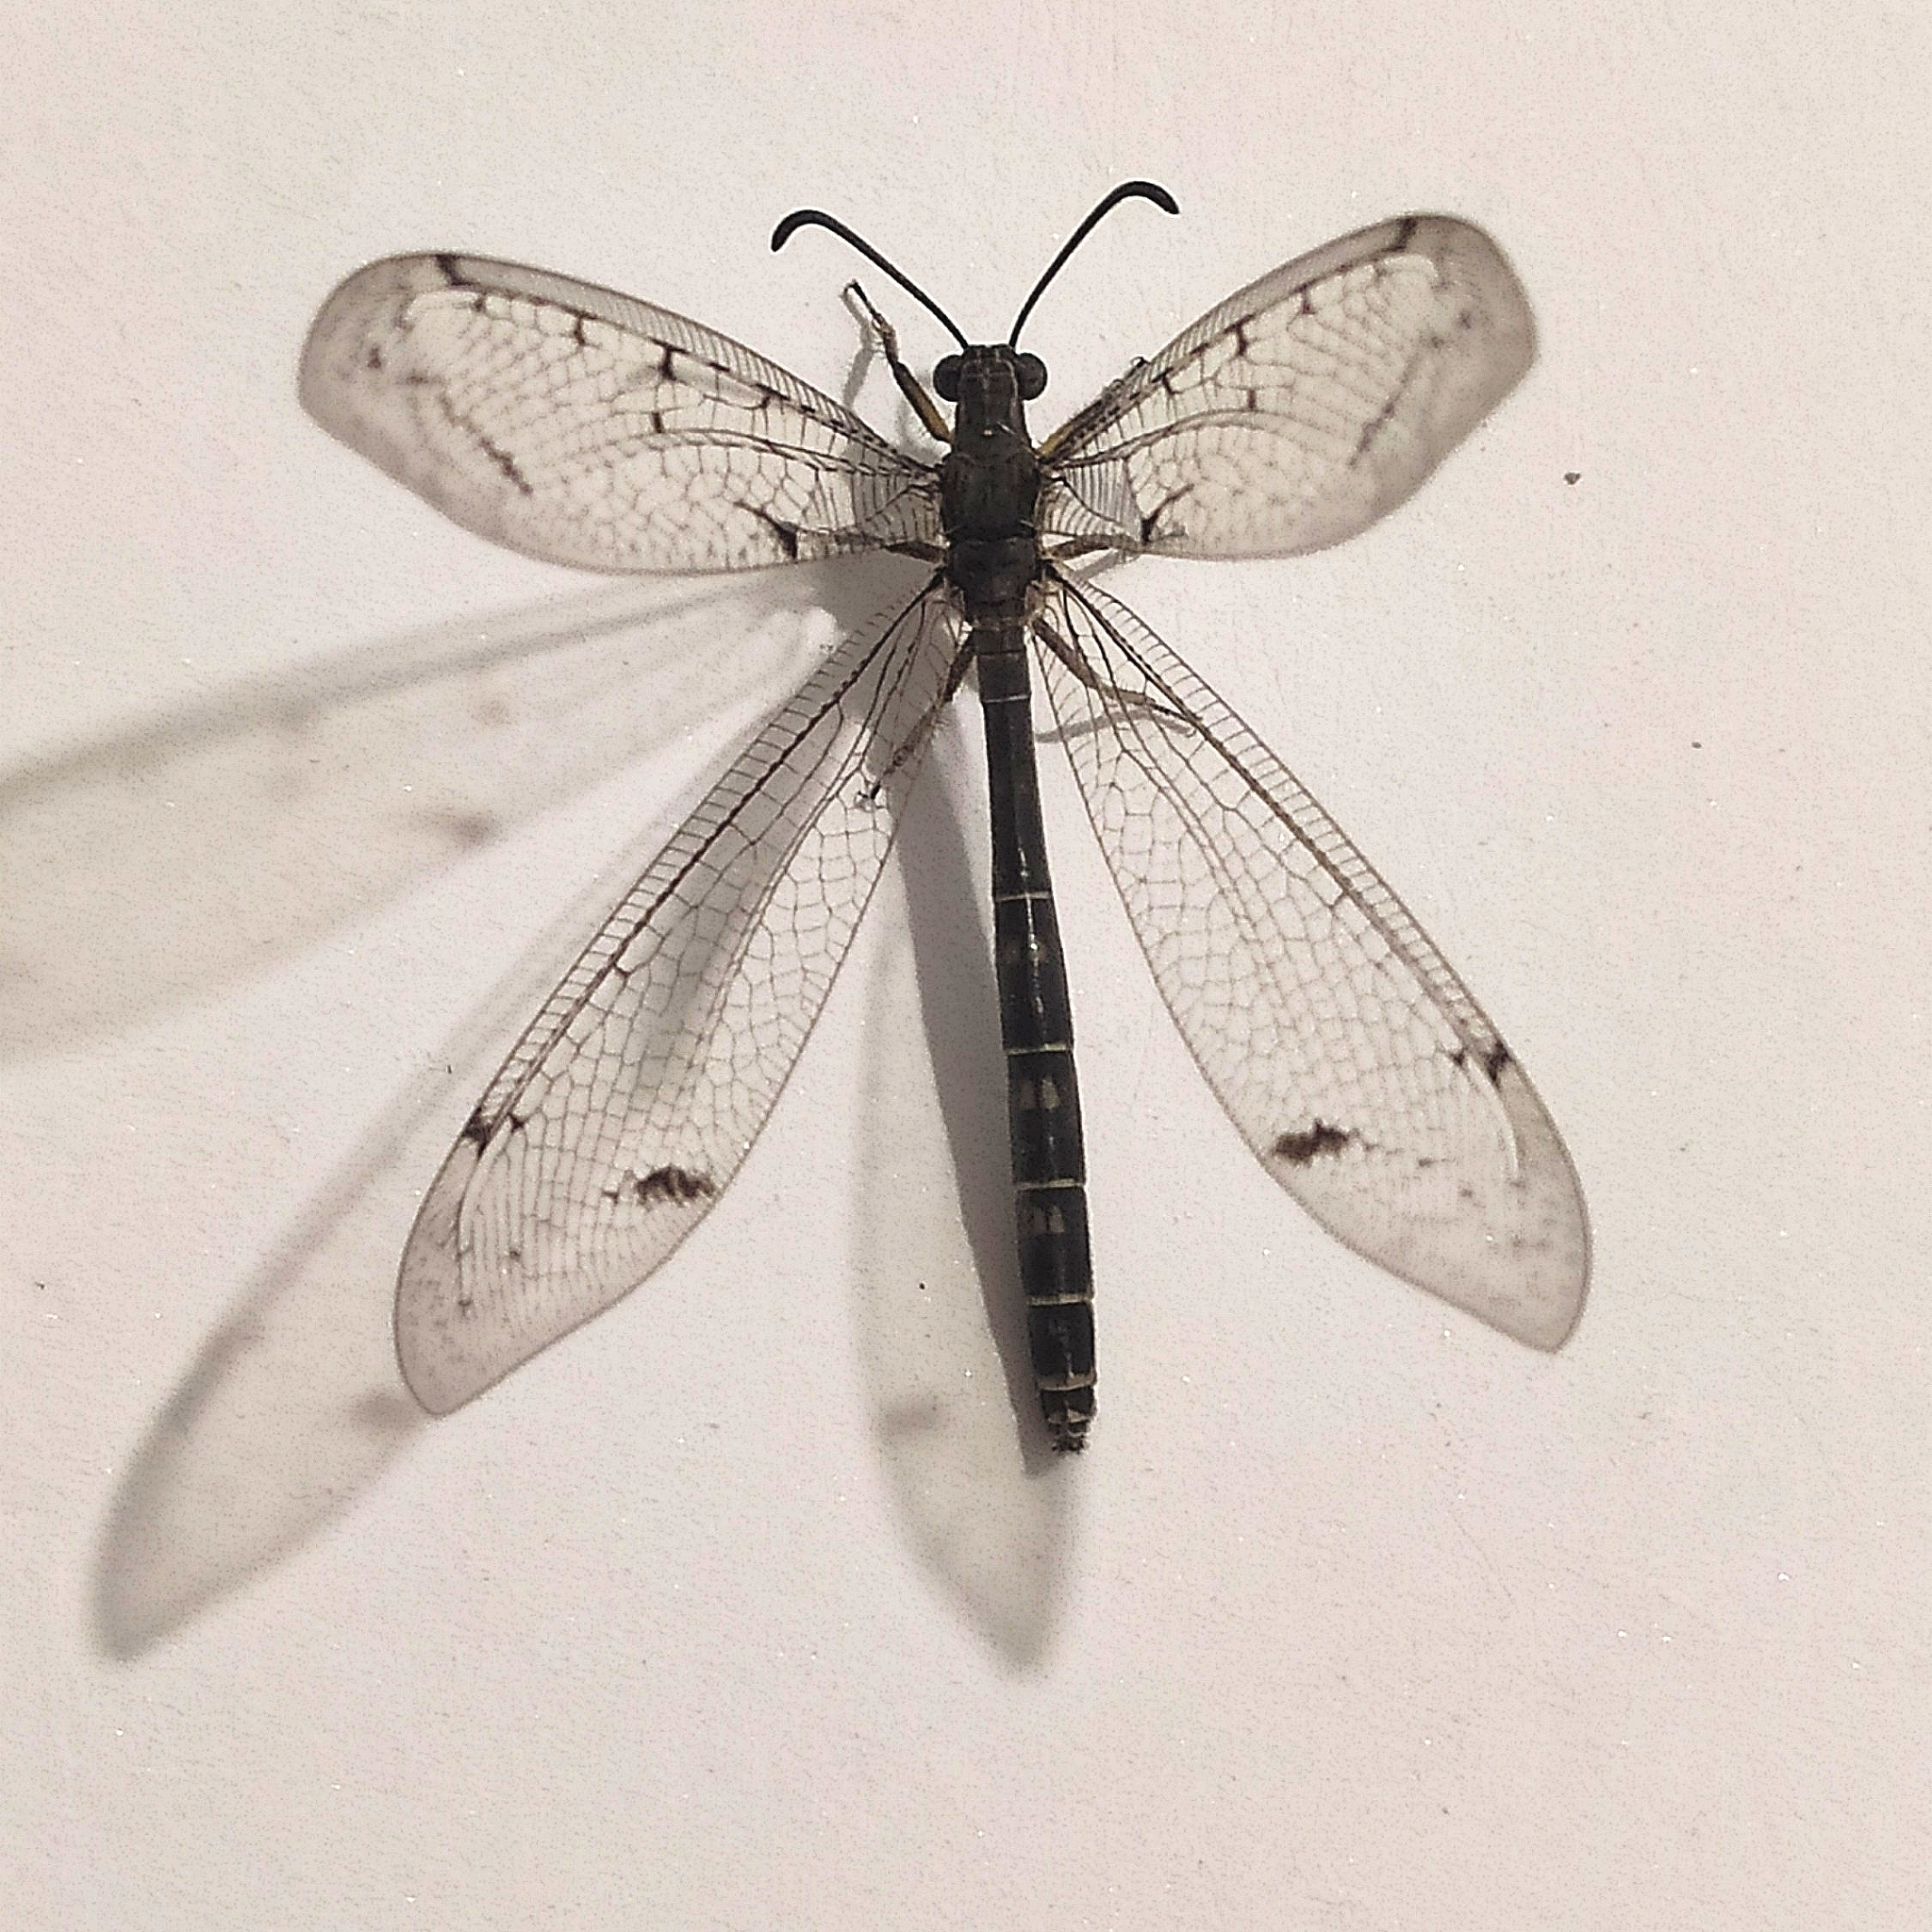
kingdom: Animalia
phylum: Arthropoda
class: Insecta
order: Neuroptera
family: Myrmeleontidae
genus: Distoleon
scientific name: Distoleon tetragrammicus
